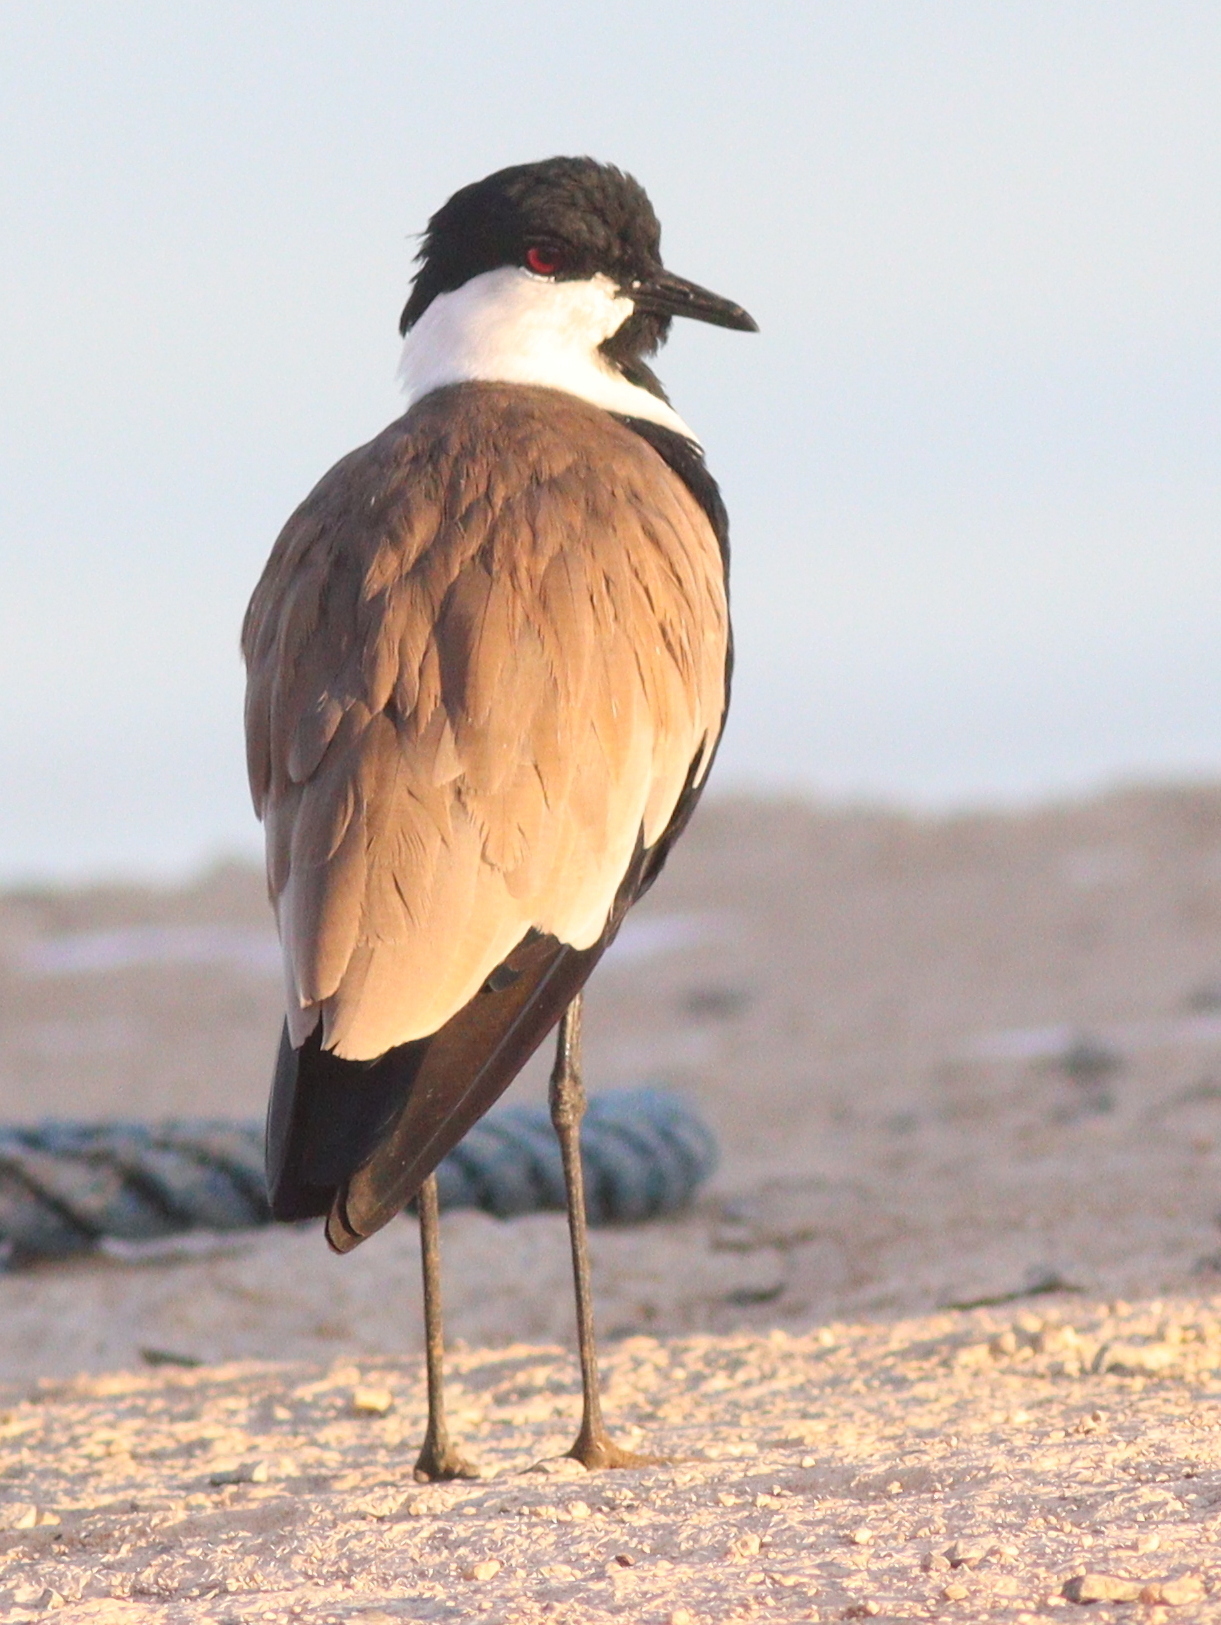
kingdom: Animalia
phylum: Chordata
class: Aves
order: Charadriiformes
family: Charadriidae
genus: Vanellus
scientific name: Vanellus spinosus
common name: Spur-winged lapwing
